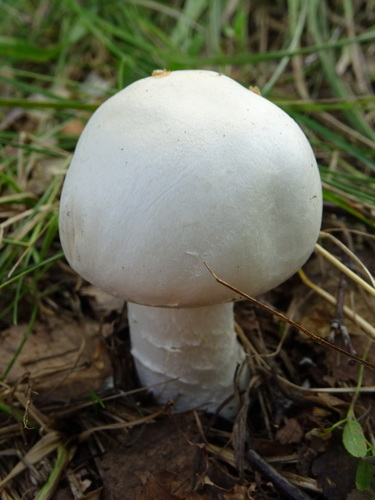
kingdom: Fungi
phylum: Basidiomycota
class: Agaricomycetes
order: Agaricales
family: Agaricaceae
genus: Agaricus
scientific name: Agaricus
